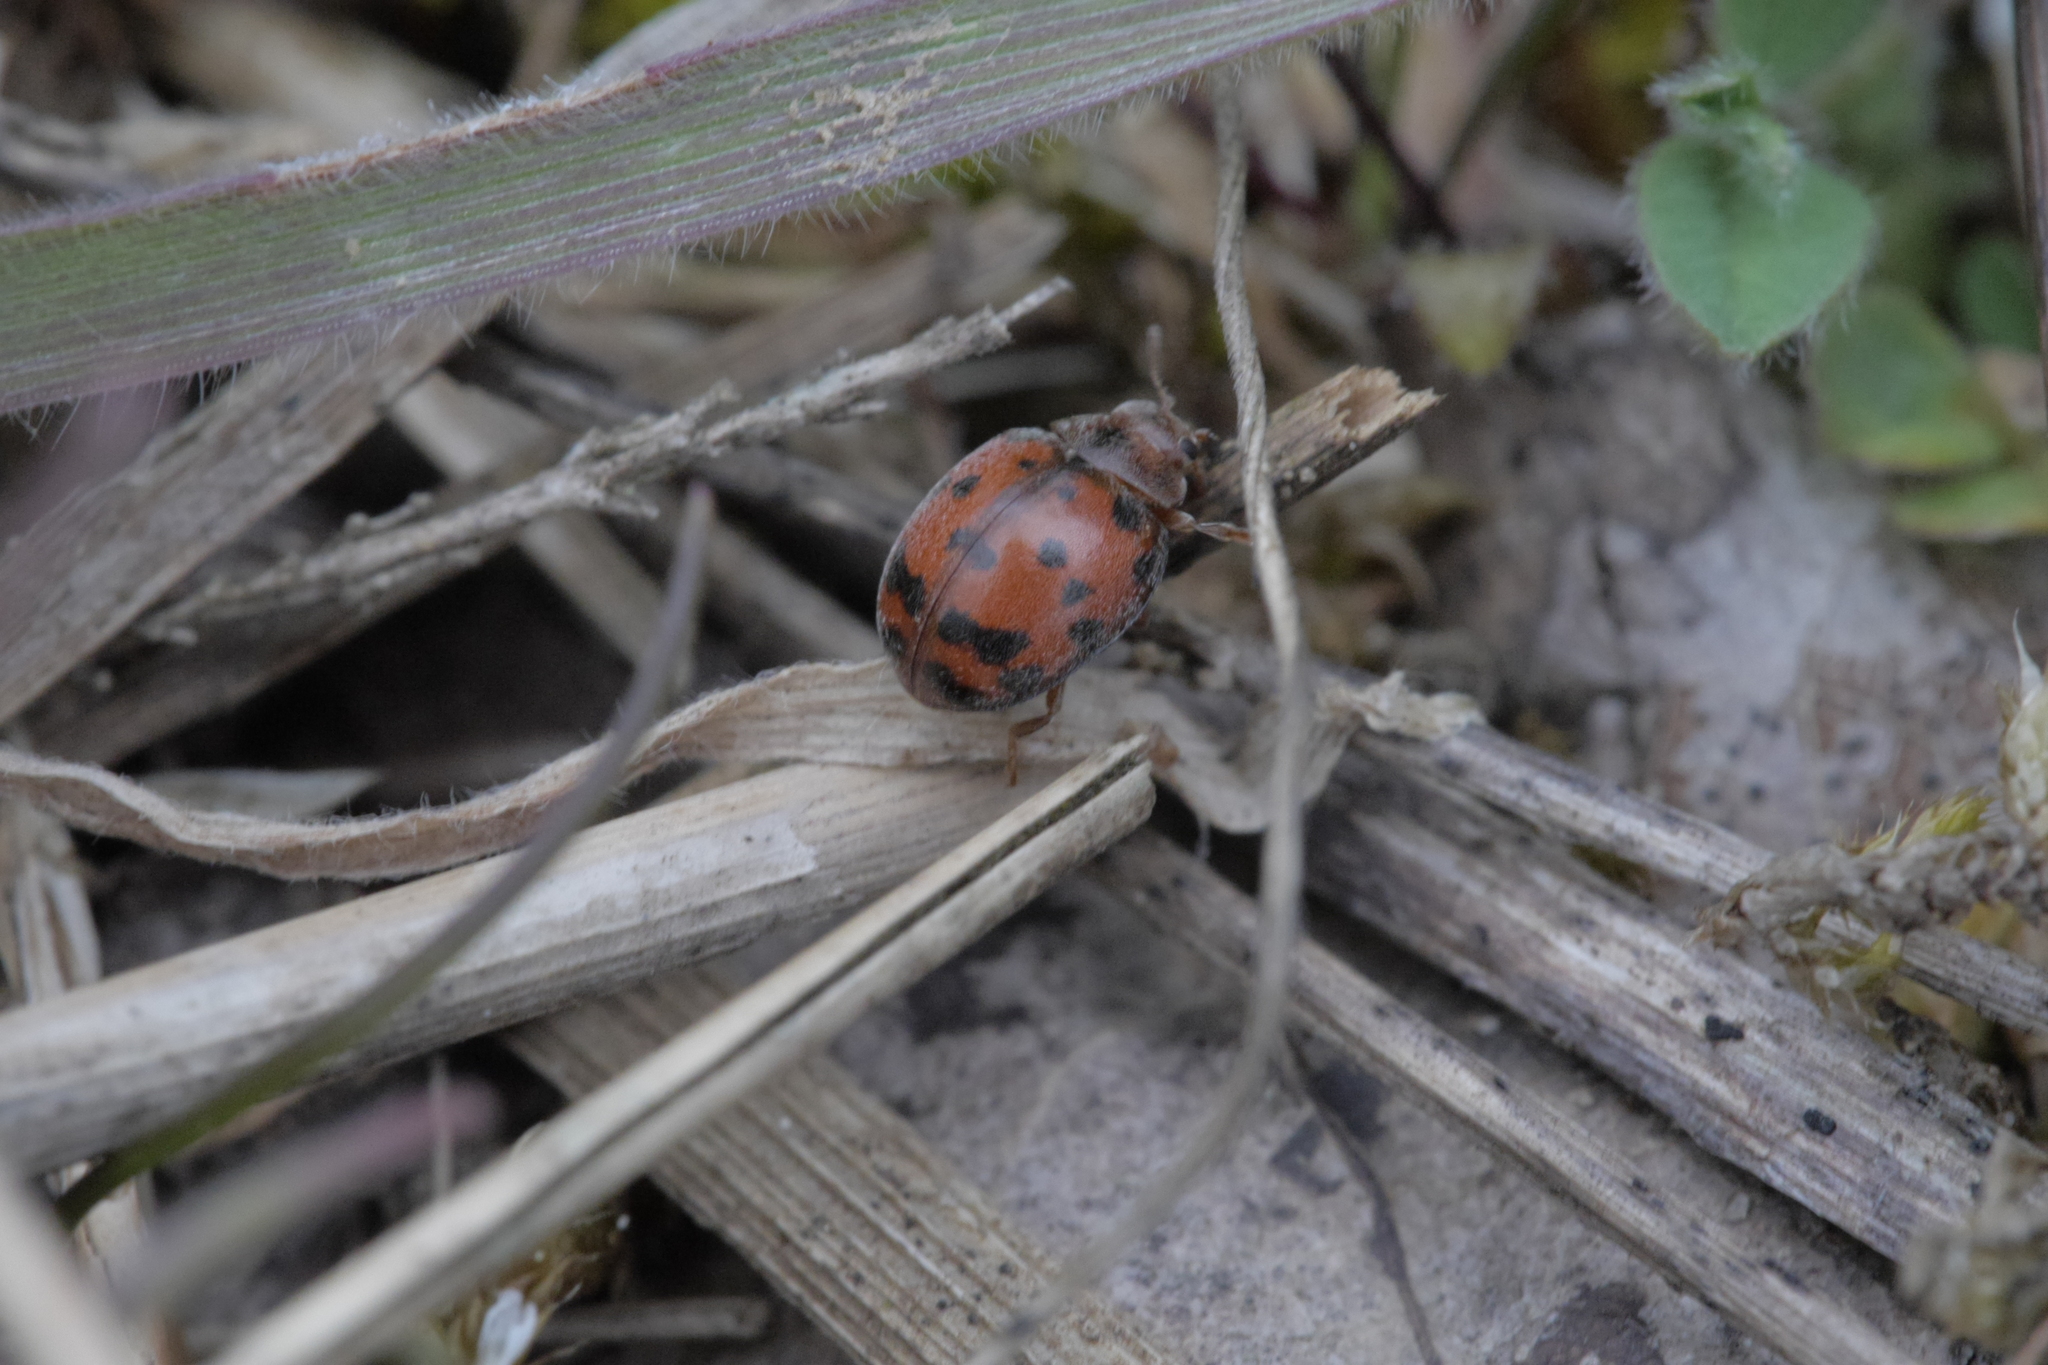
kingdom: Animalia
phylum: Arthropoda
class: Insecta
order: Coleoptera
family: Coccinellidae
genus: Subcoccinella
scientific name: Subcoccinella vigintiquatuorpunctata
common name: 24-spot ladybird
